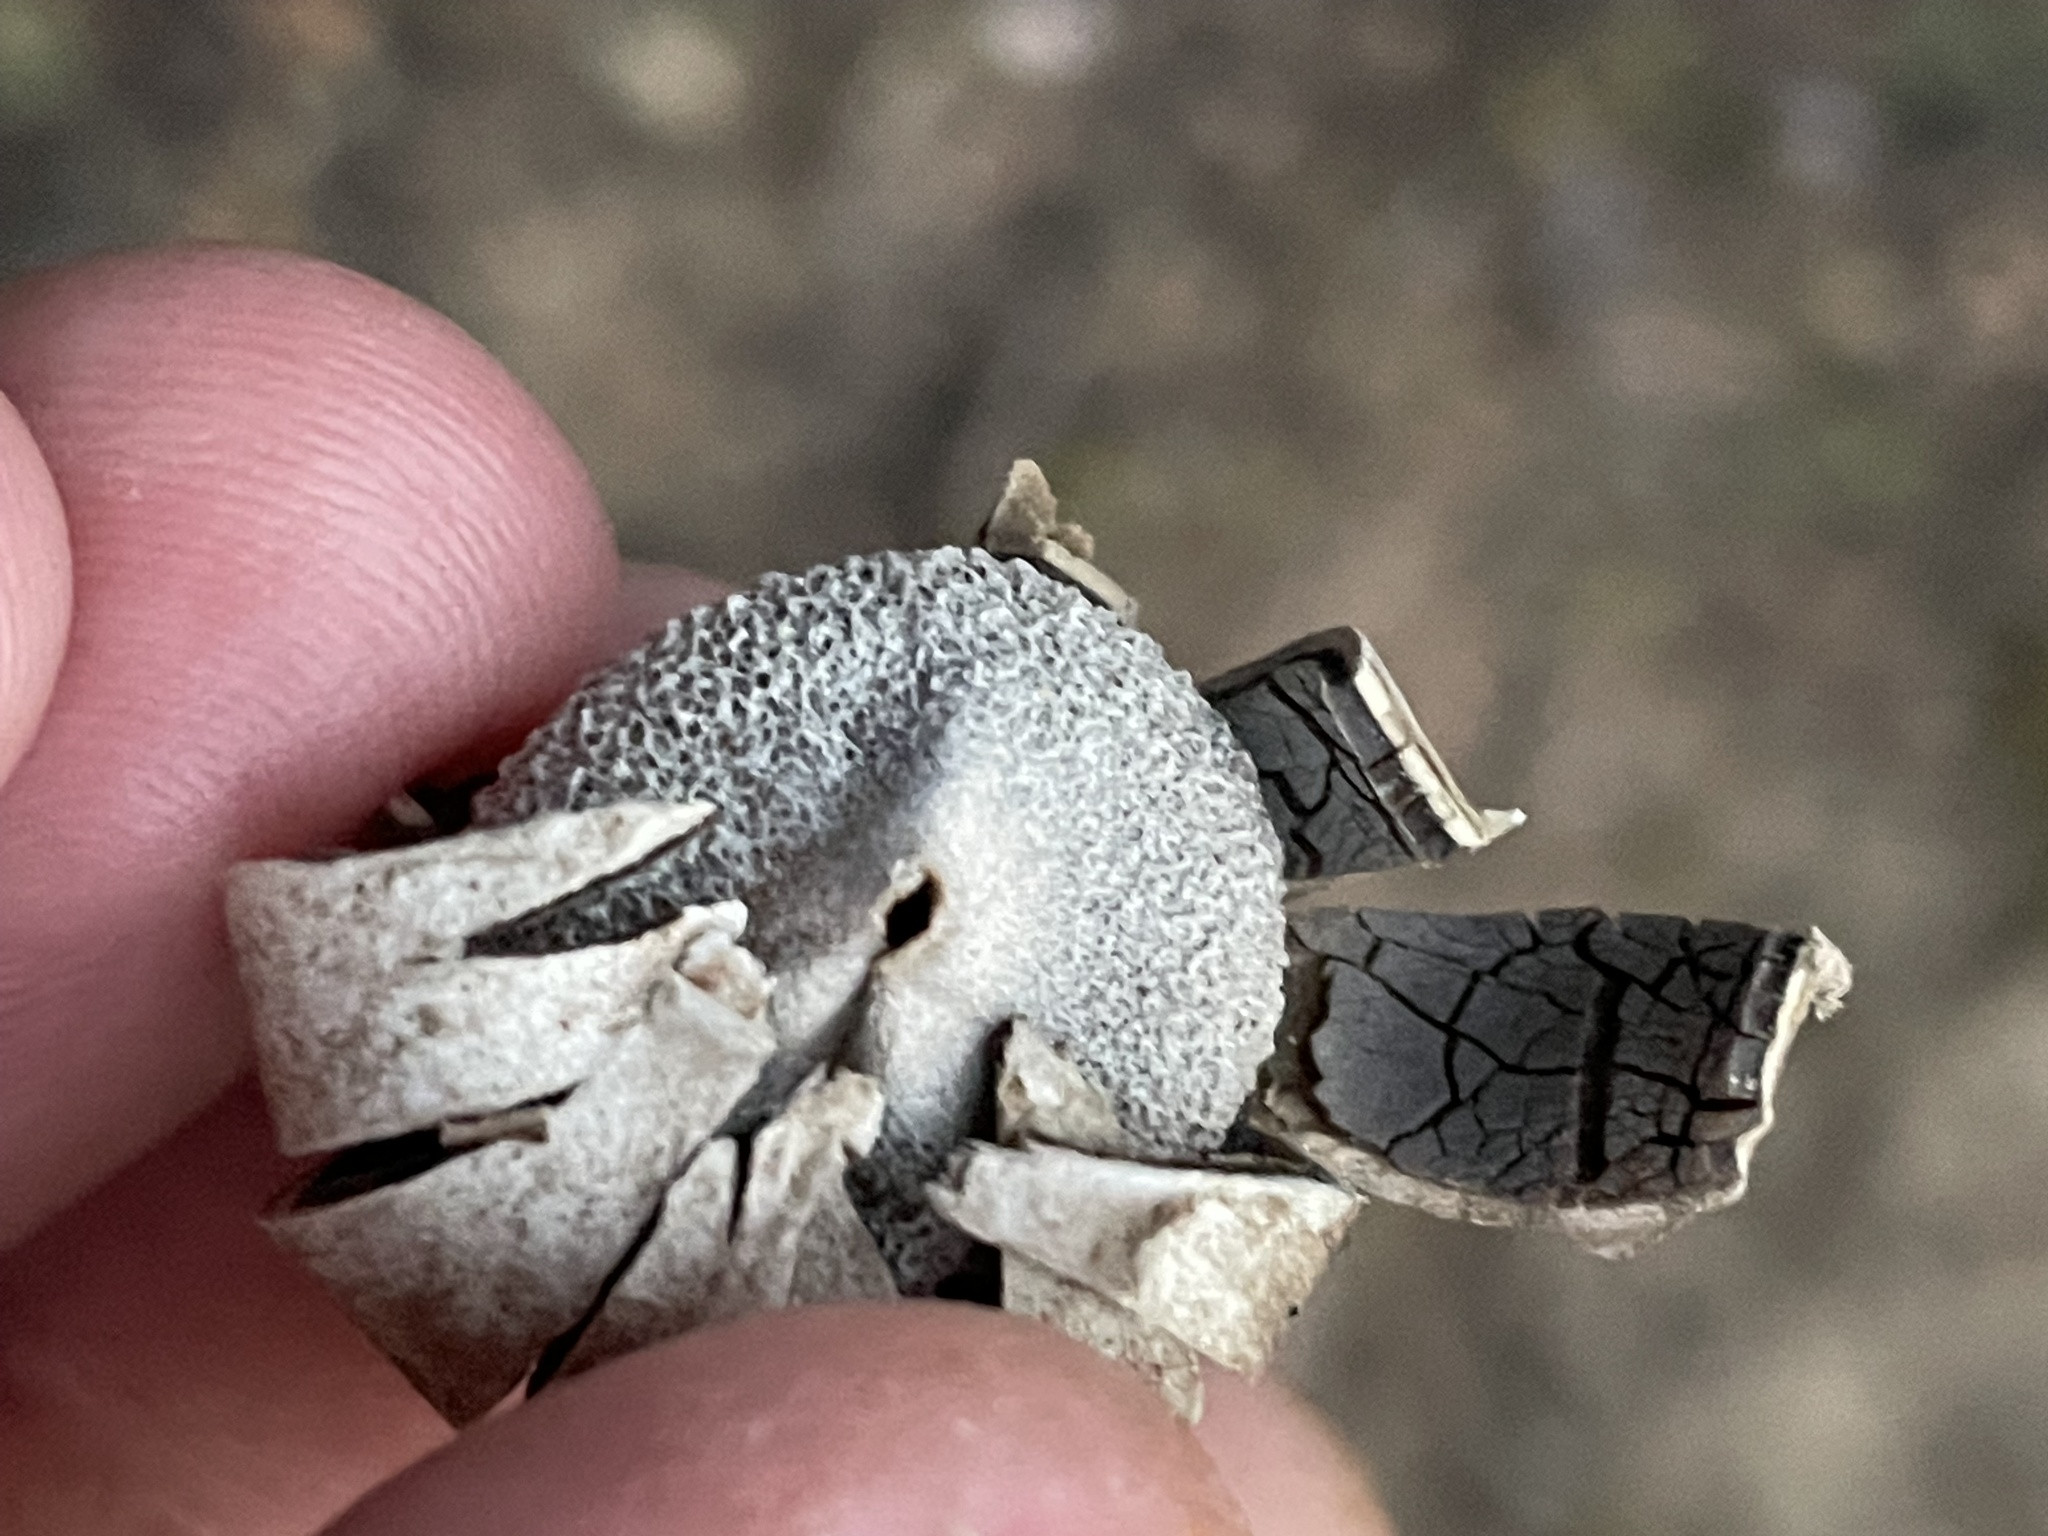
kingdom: Fungi
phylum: Basidiomycota
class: Agaricomycetes
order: Boletales
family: Diplocystidiaceae
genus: Astraeus
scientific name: Astraeus morganii
